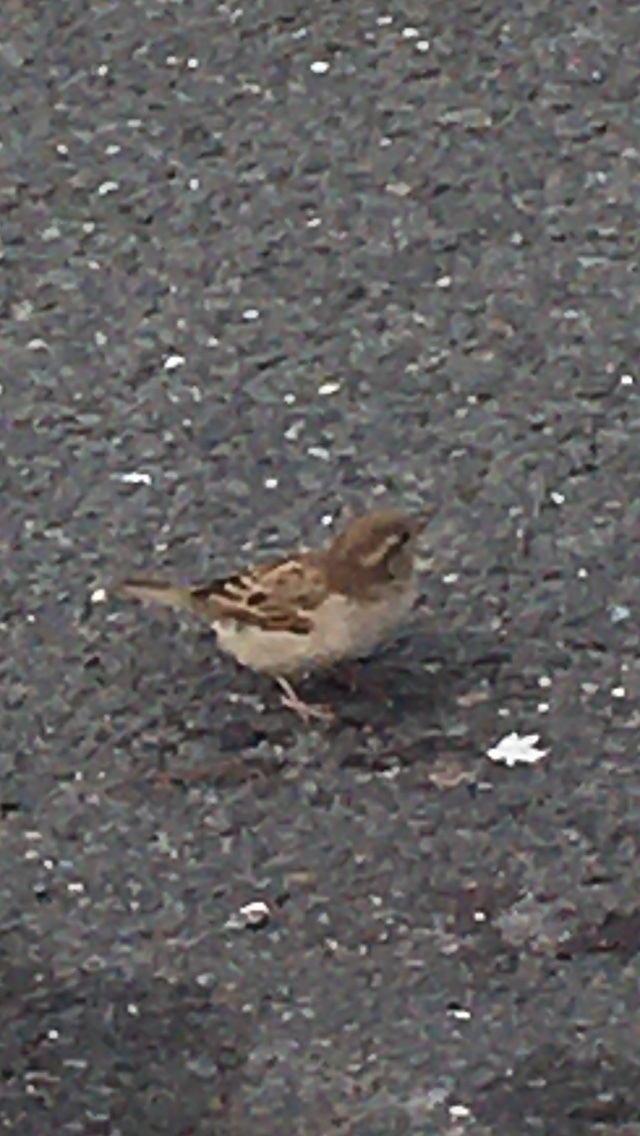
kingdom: Animalia
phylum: Chordata
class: Aves
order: Passeriformes
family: Passeridae
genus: Passer
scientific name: Passer domesticus
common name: House sparrow
